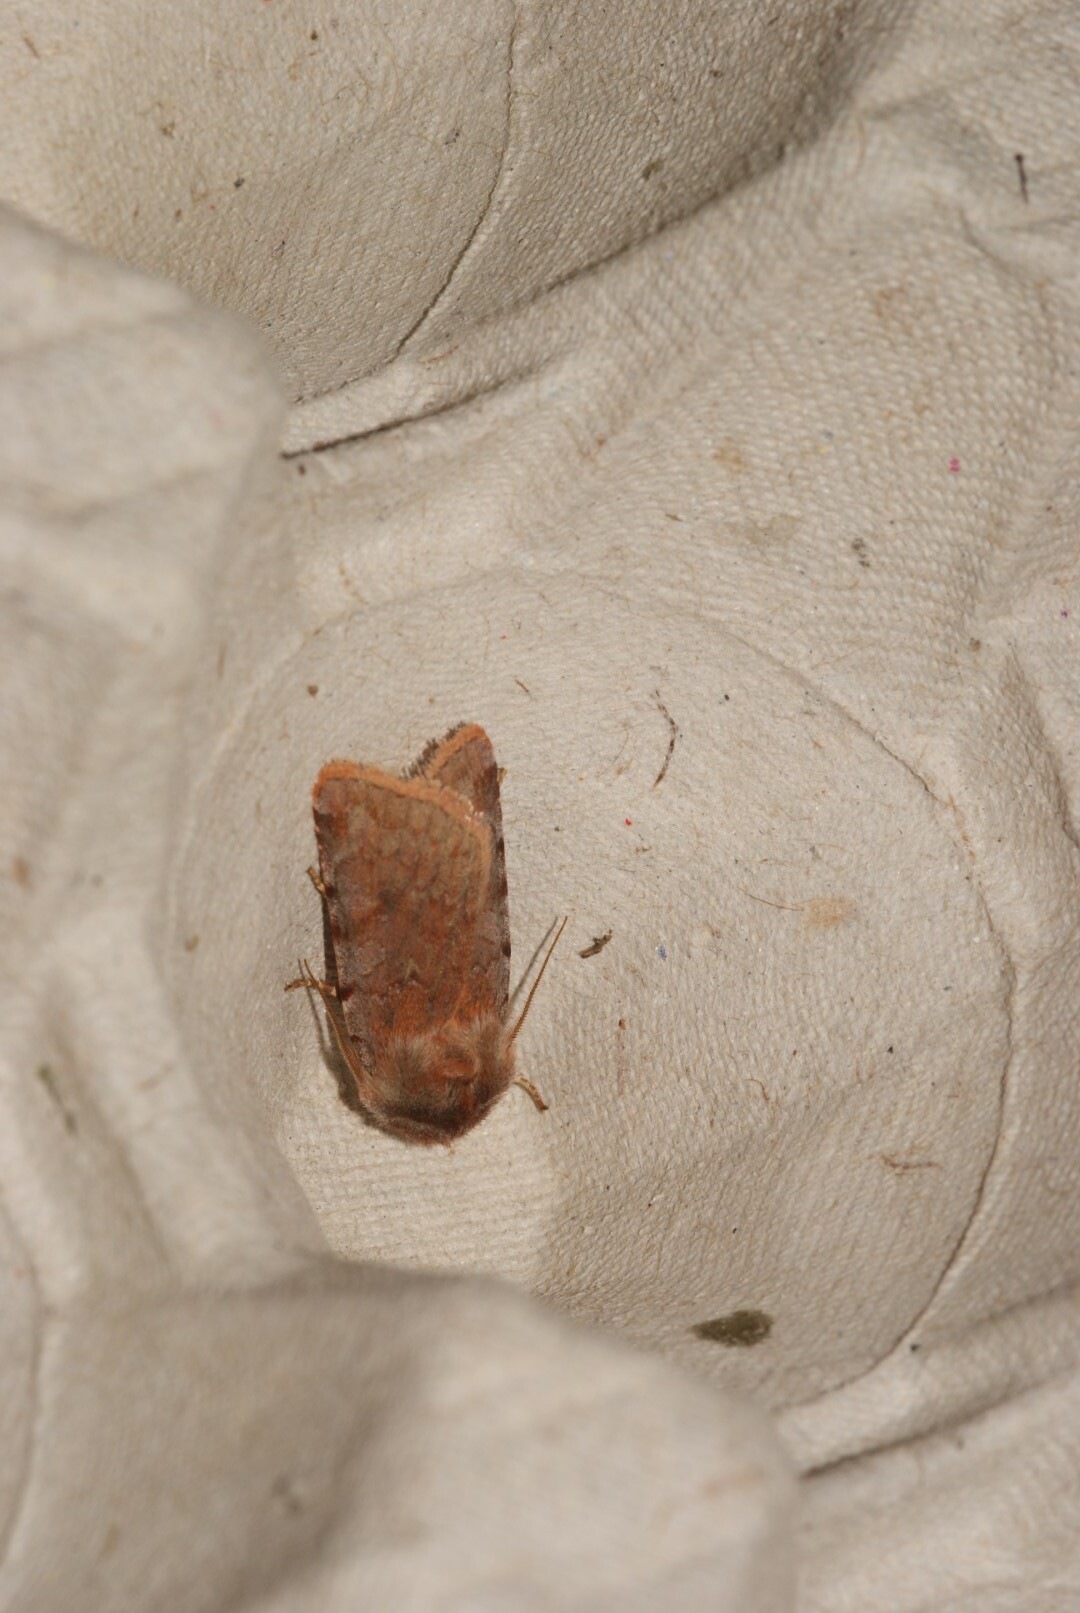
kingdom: Animalia
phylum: Arthropoda
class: Insecta
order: Lepidoptera
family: Noctuidae
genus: Cerastis
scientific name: Cerastis rubricosa
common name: Red chestnut
